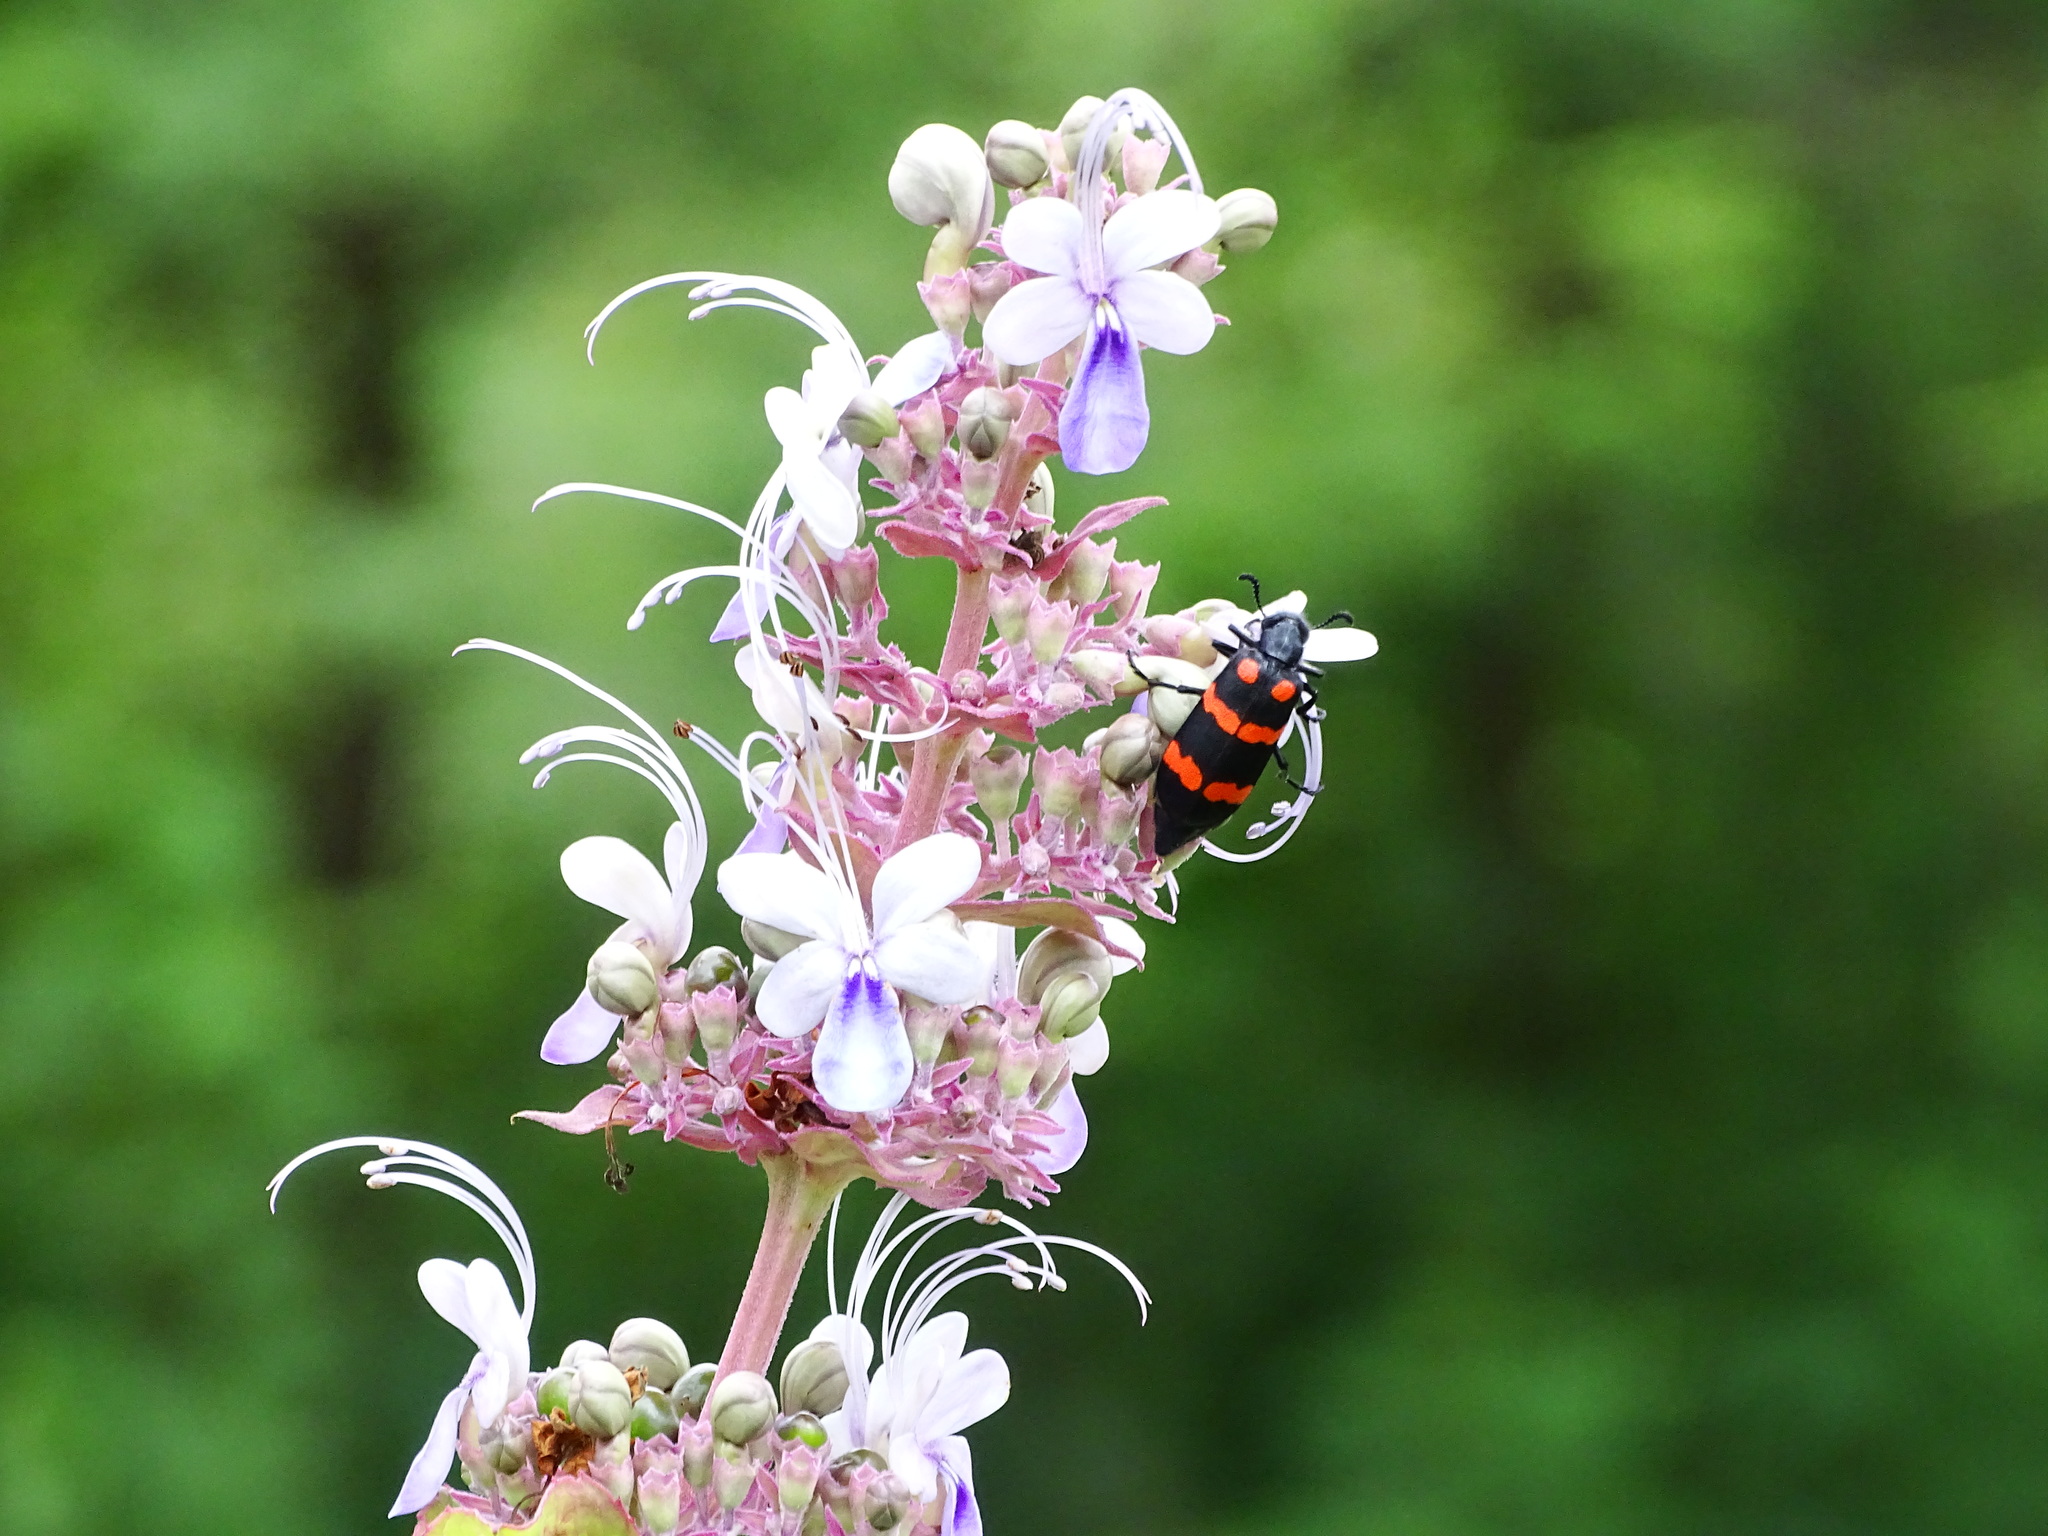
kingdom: Plantae
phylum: Tracheophyta
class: Magnoliopsida
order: Lamiales
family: Lamiaceae
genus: Rotheca
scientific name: Rotheca serrata
